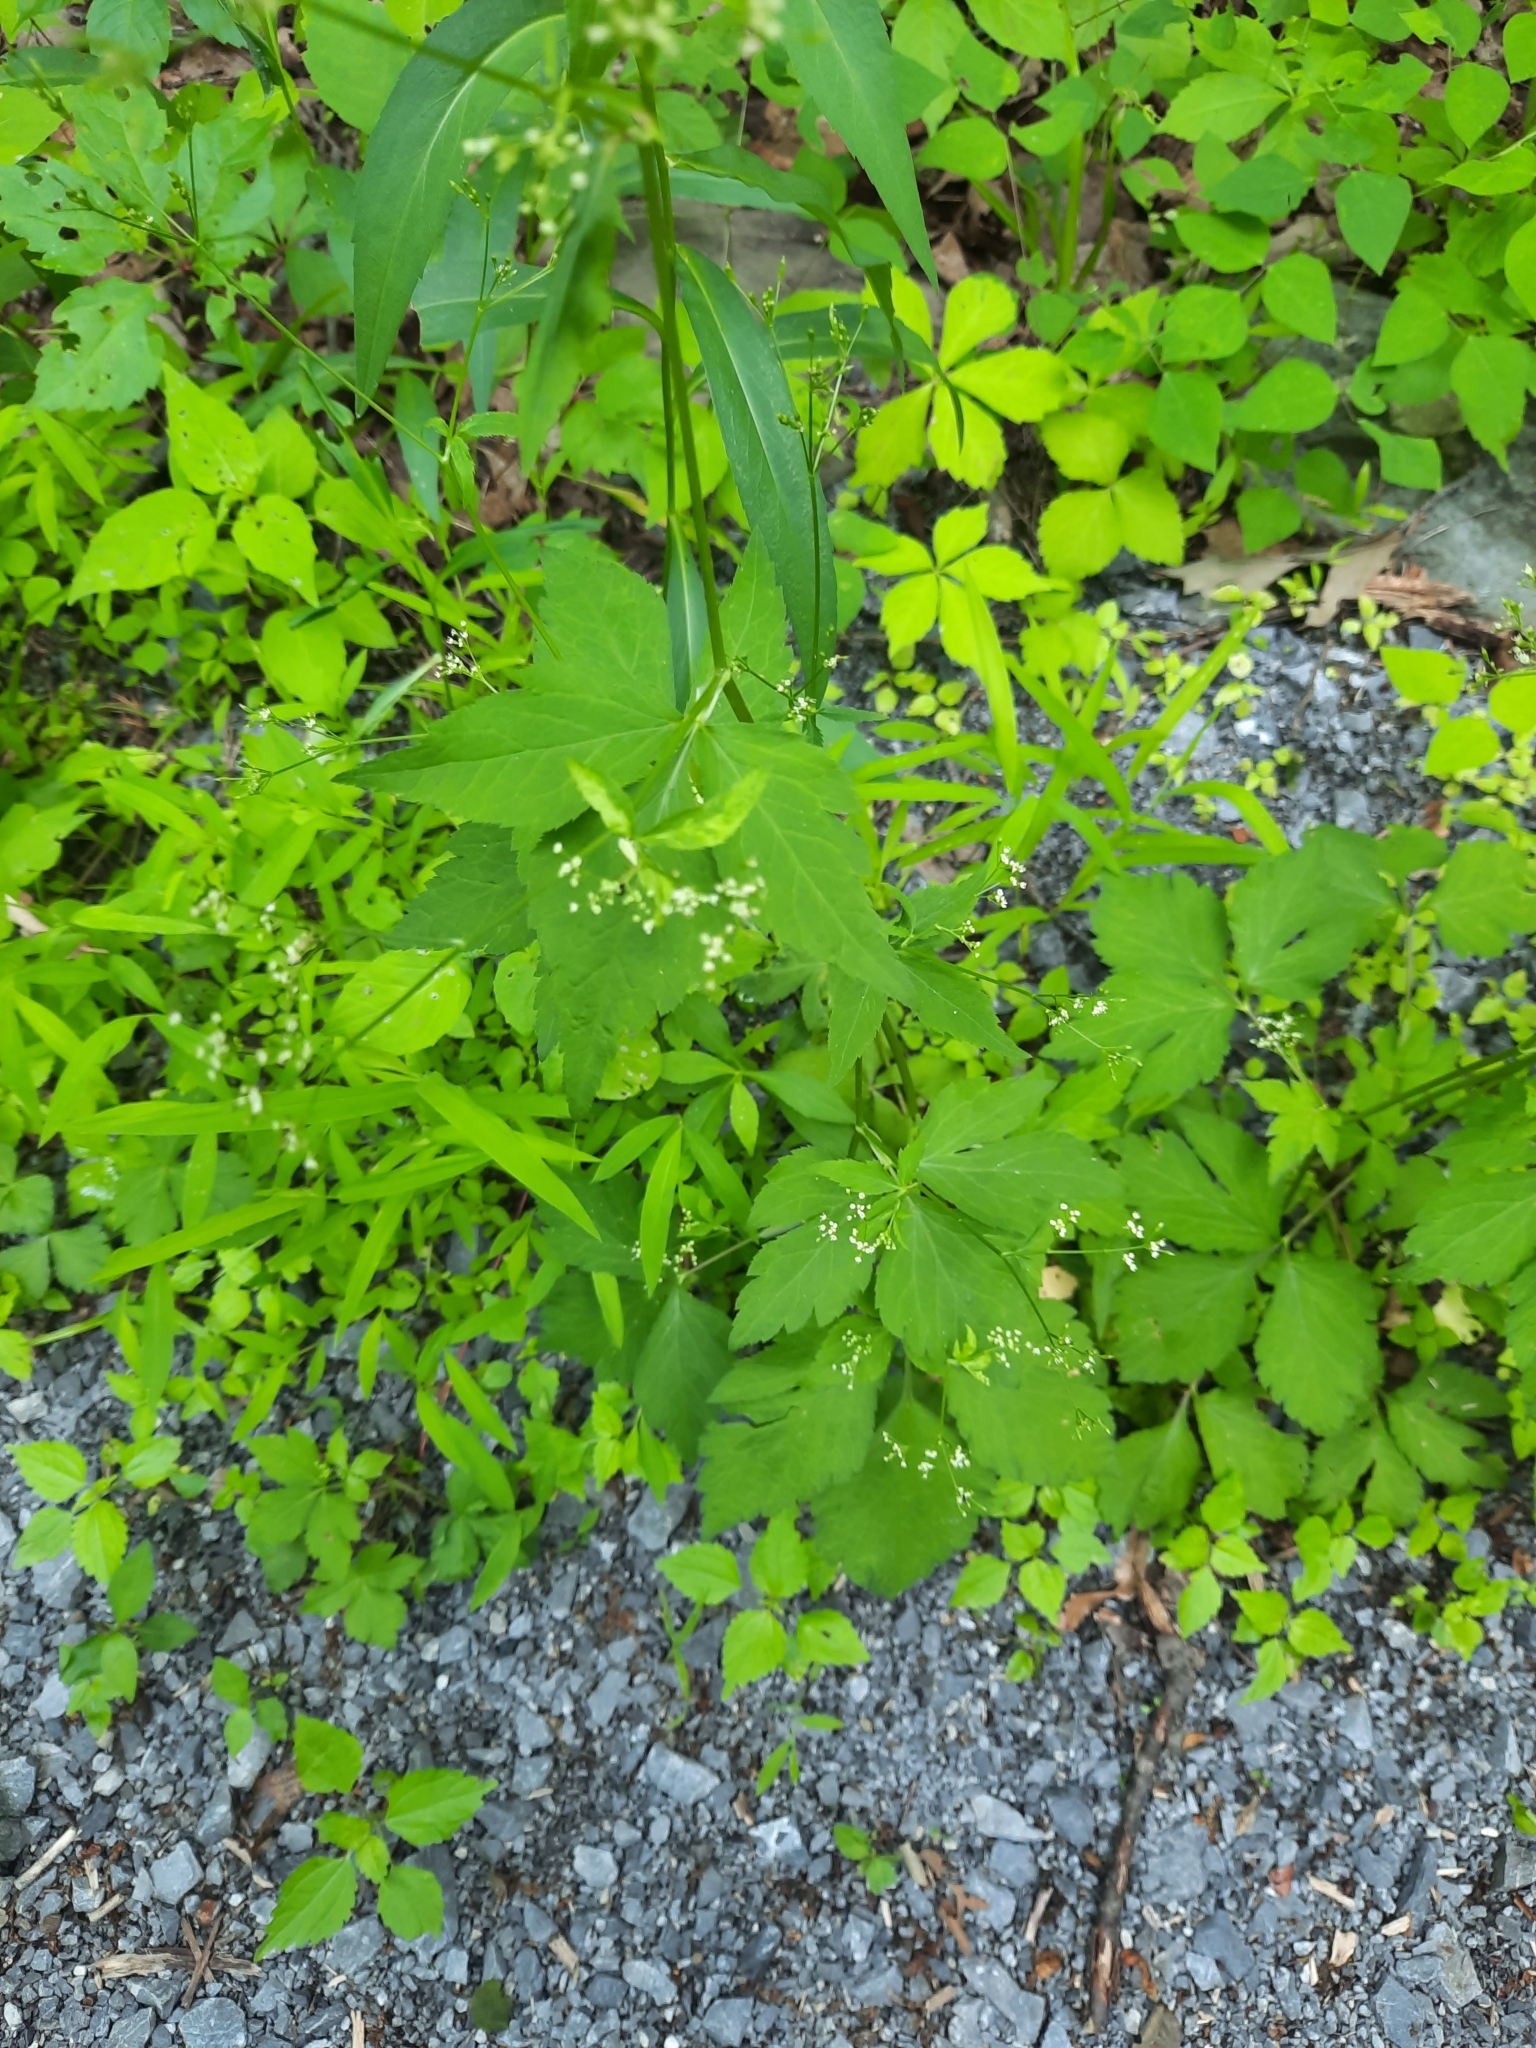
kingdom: Plantae
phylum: Tracheophyta
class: Magnoliopsida
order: Apiales
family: Apiaceae
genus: Cryptotaenia
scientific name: Cryptotaenia canadensis
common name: Honewort
